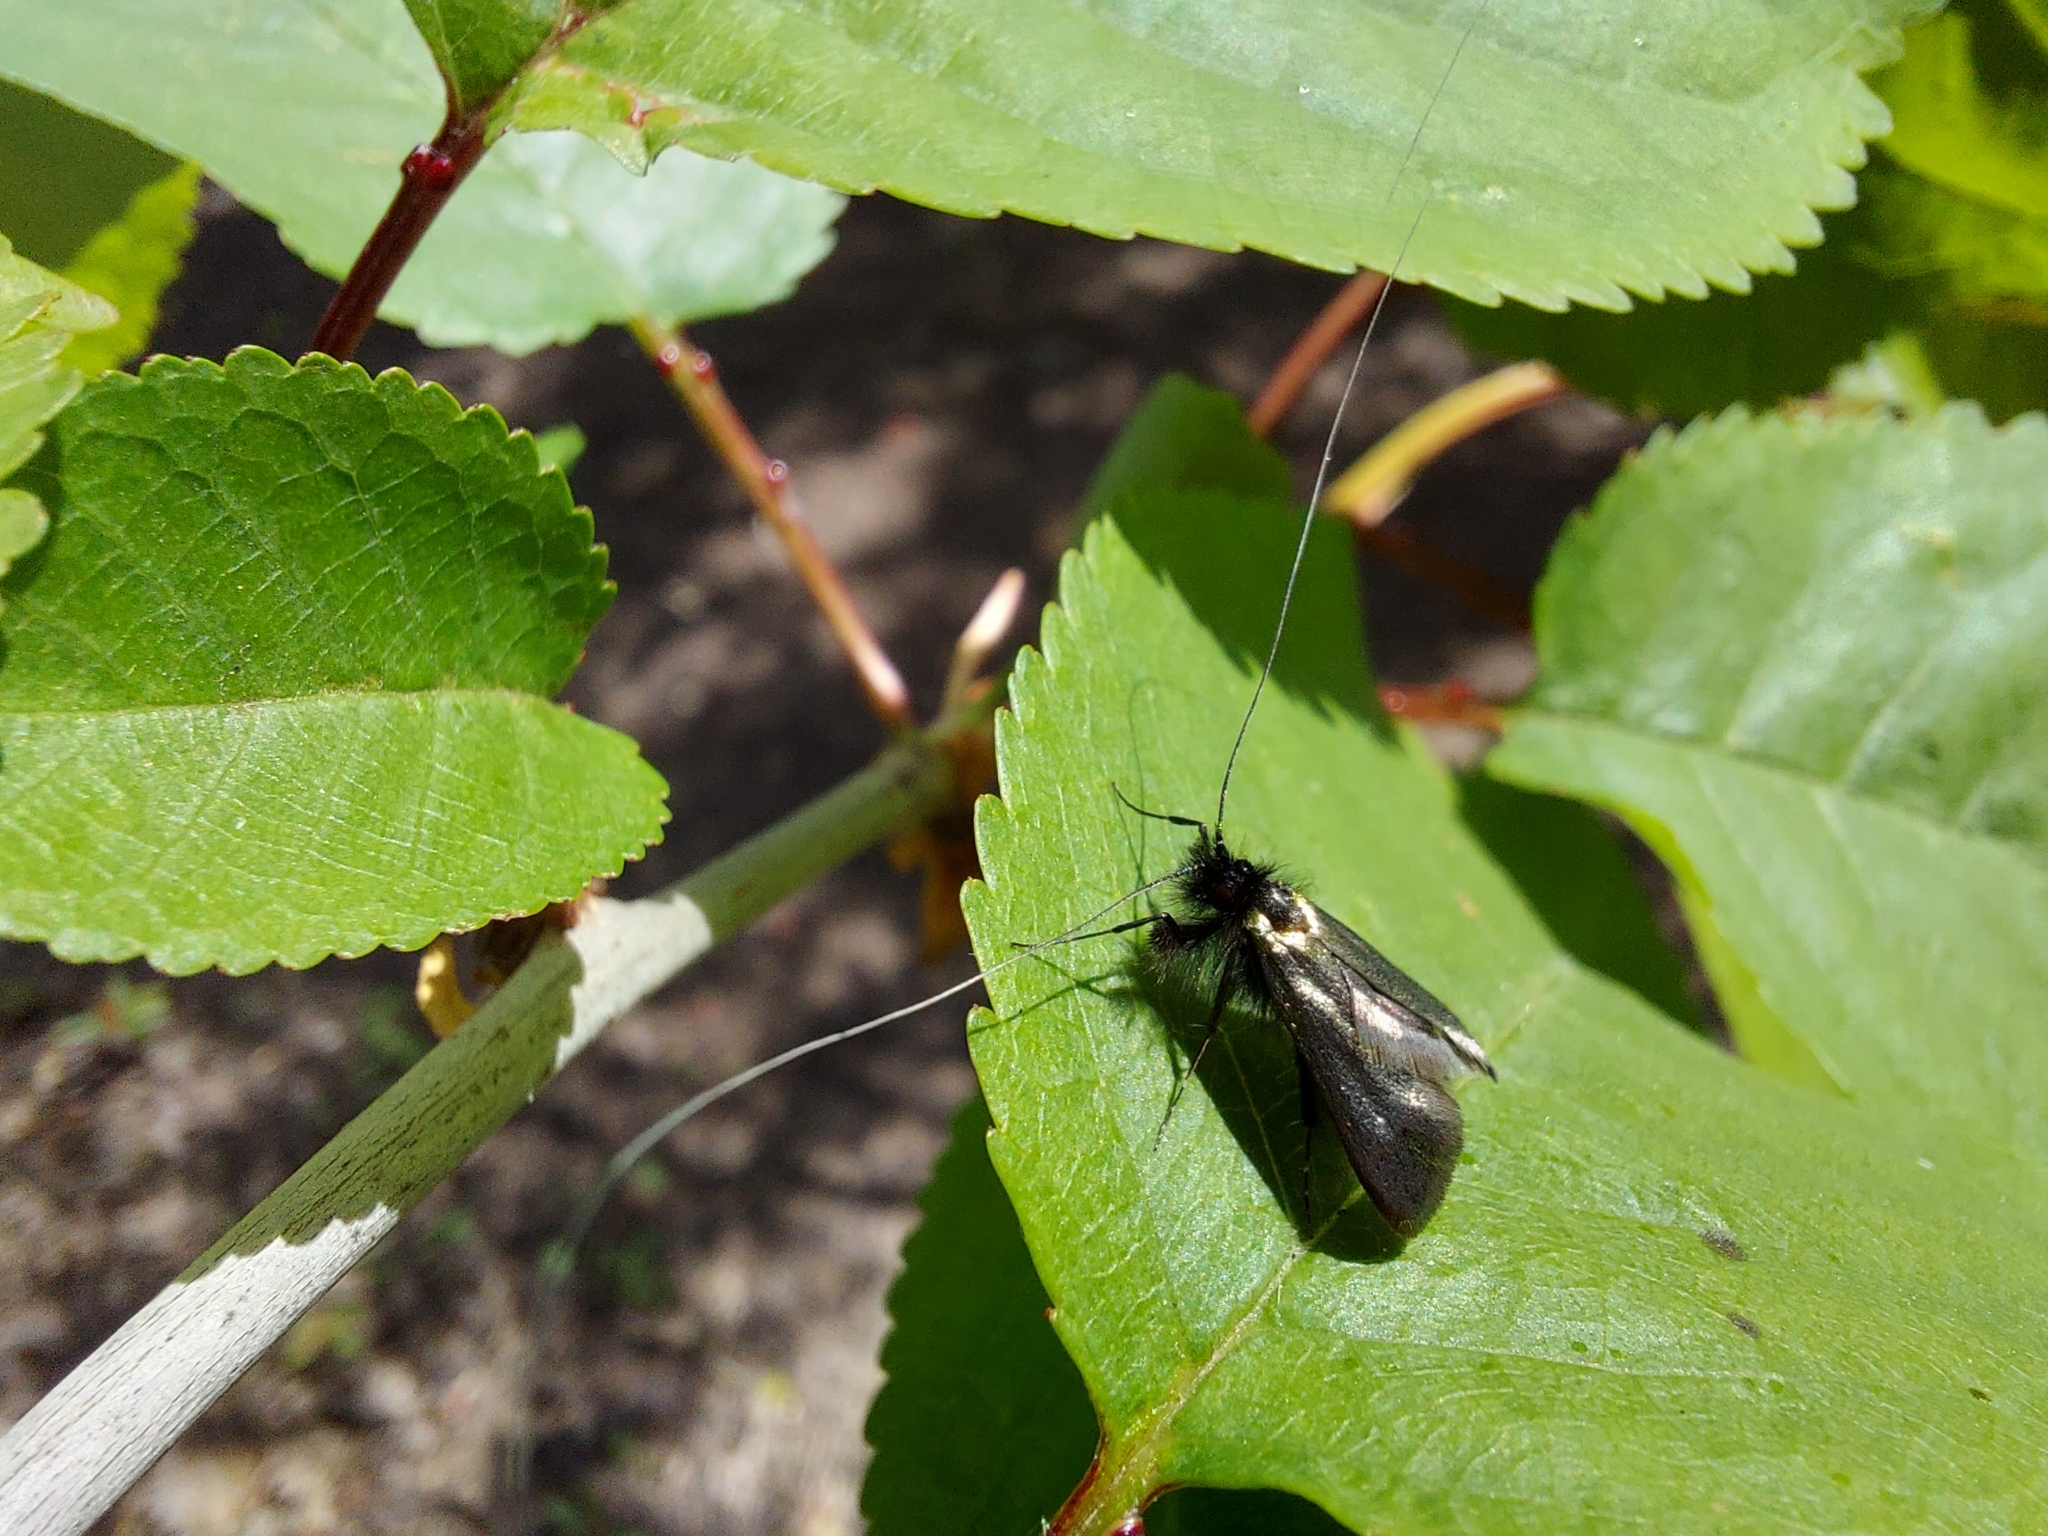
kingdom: Animalia
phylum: Arthropoda
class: Insecta
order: Lepidoptera
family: Adelidae
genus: Adela
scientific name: Adela viridella
